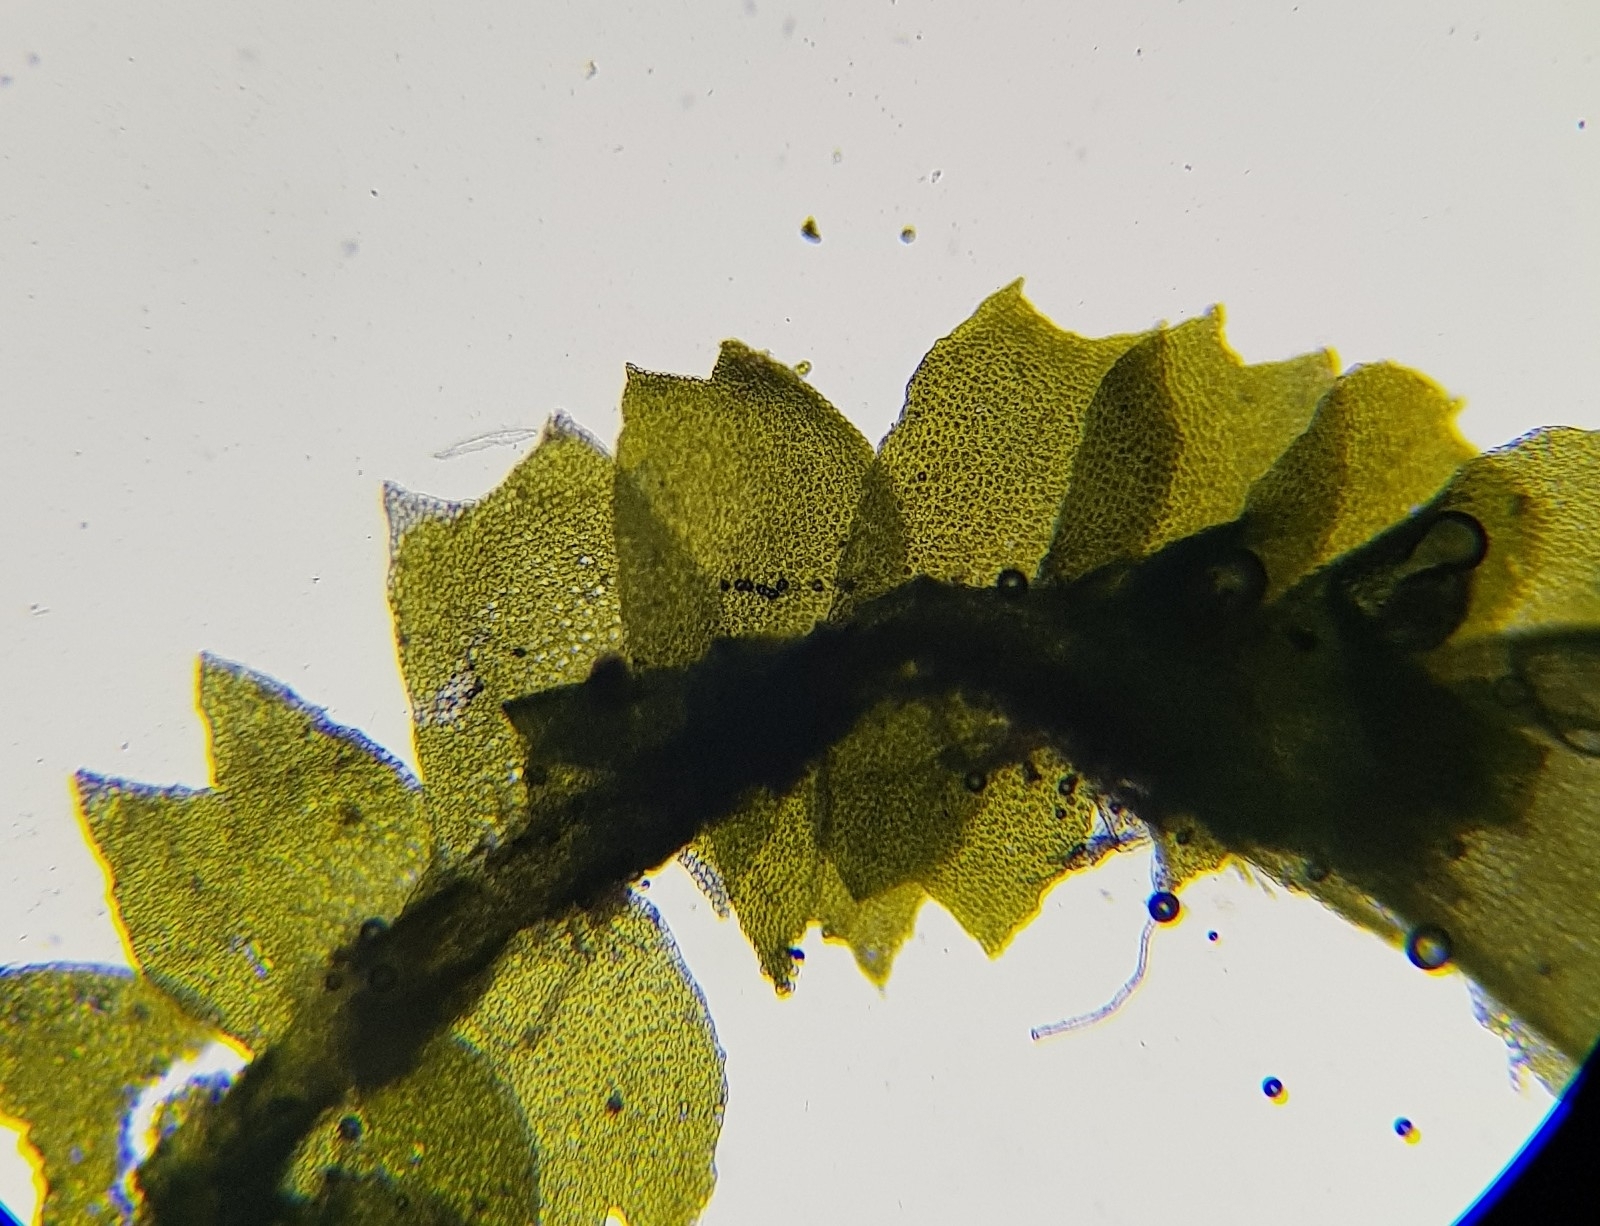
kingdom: Plantae
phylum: Marchantiophyta
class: Jungermanniopsida
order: Jungermanniales
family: Lophocoleaceae
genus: Lophocolea
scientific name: Lophocolea heterophylla
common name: Variable-leaved crestwort
